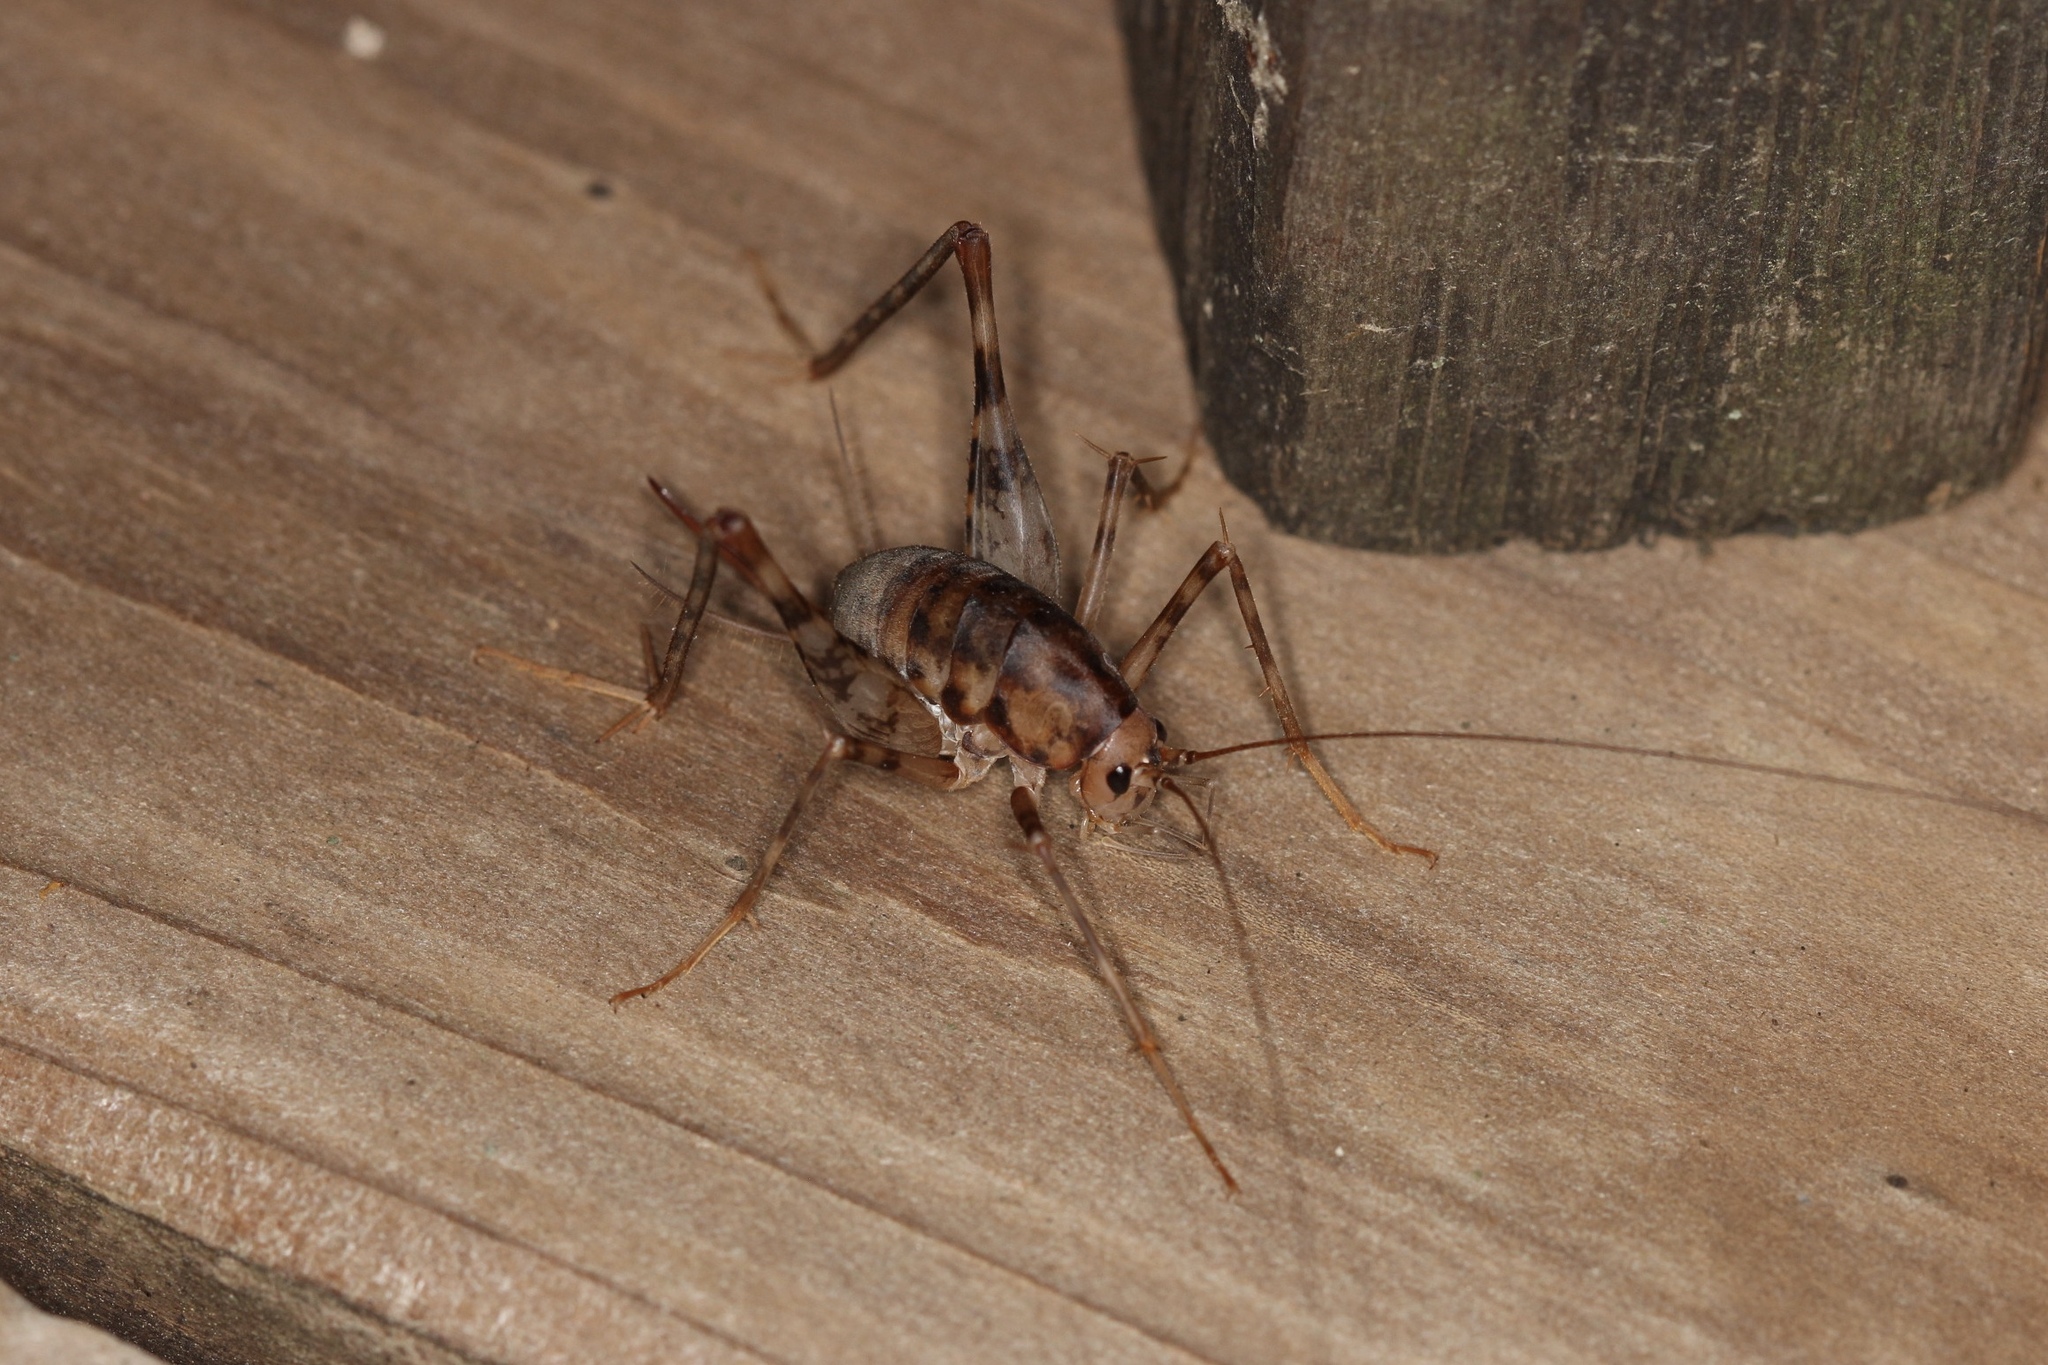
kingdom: Animalia
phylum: Arthropoda
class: Insecta
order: Orthoptera
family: Rhaphidophoridae
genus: Tachycines
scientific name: Tachycines asynamorus
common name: Greenhouse camel cricket
